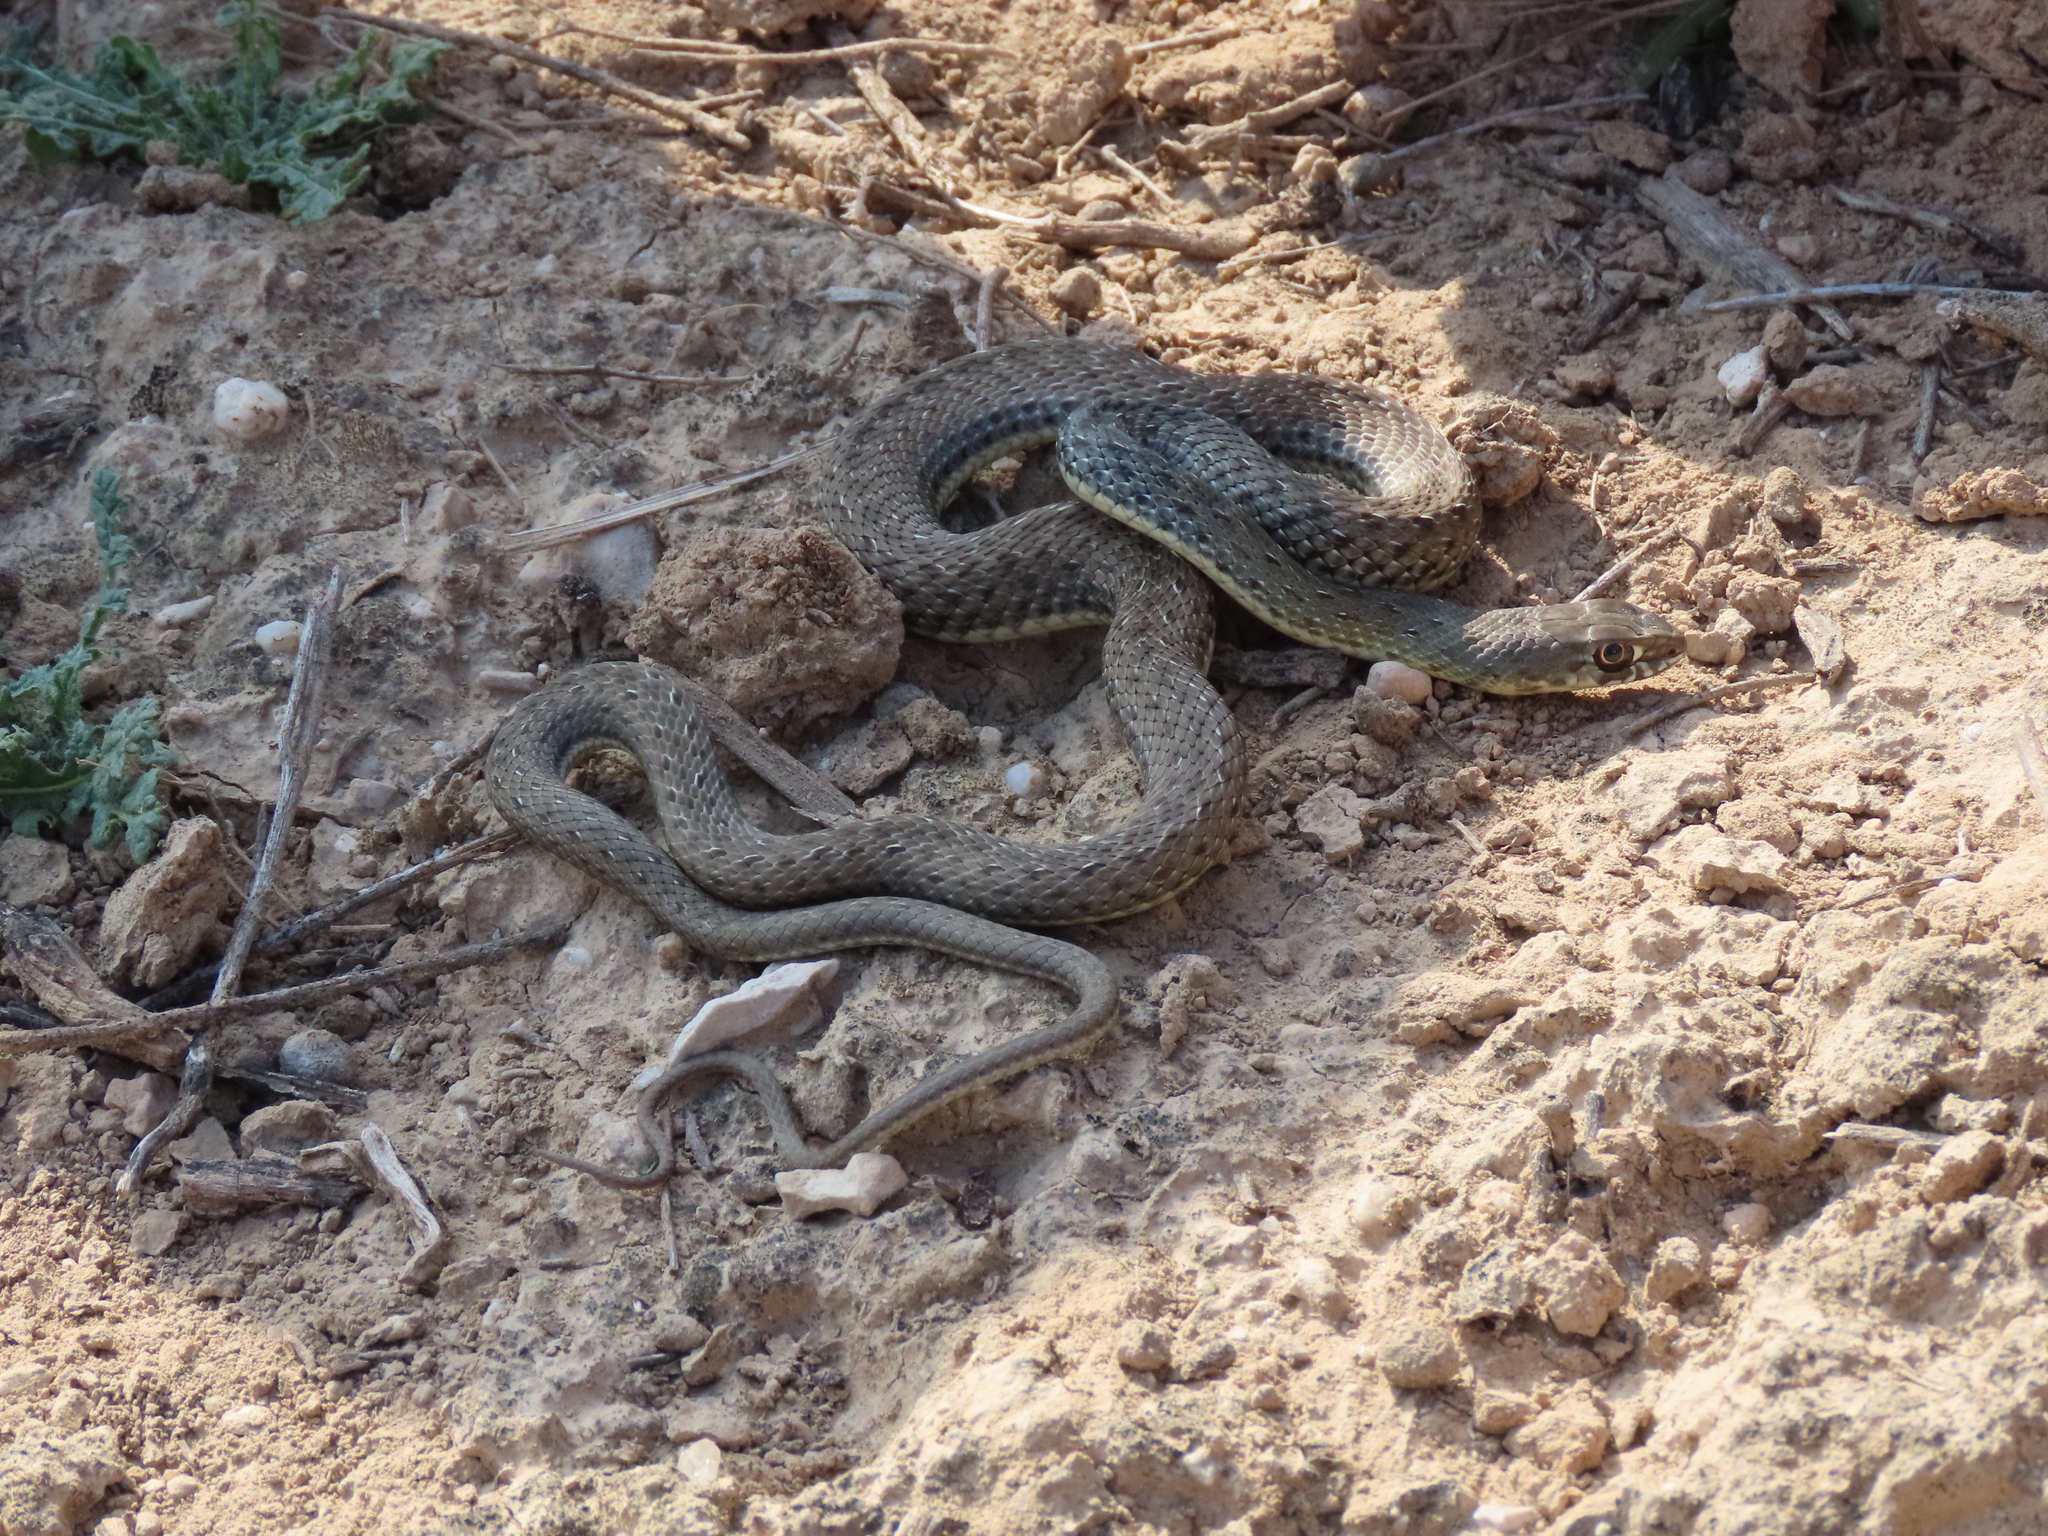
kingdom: Animalia
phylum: Chordata
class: Squamata
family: Psammophiidae
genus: Malpolon
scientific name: Malpolon monspessulanus
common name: Montpellier snake
